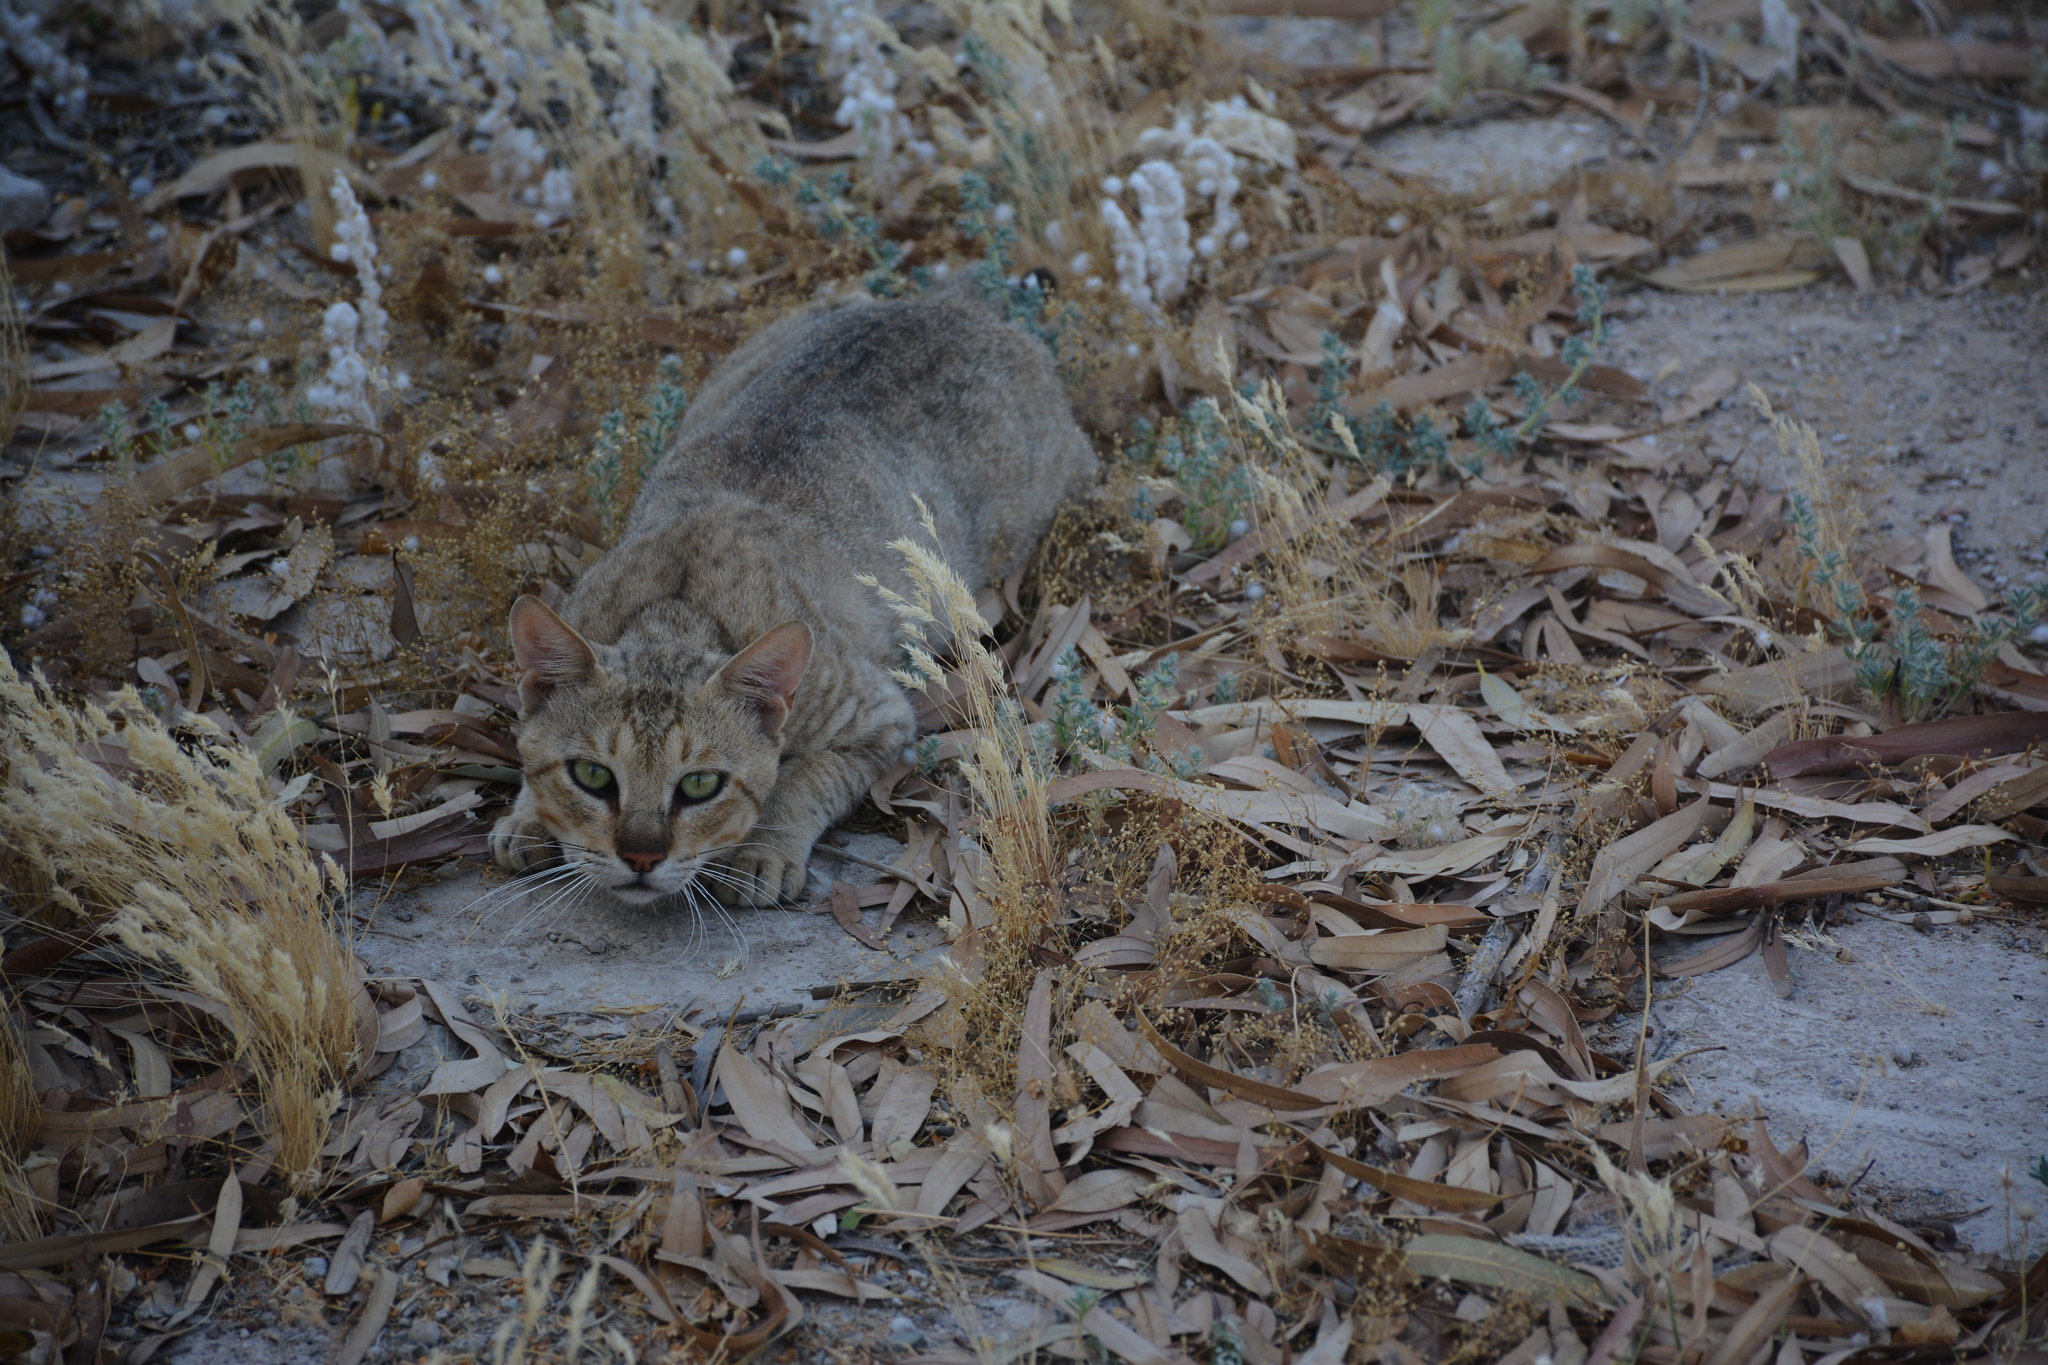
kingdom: Animalia
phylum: Chordata
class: Mammalia
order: Carnivora
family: Felidae
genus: Felis
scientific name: Felis silvestris
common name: Wildcat
